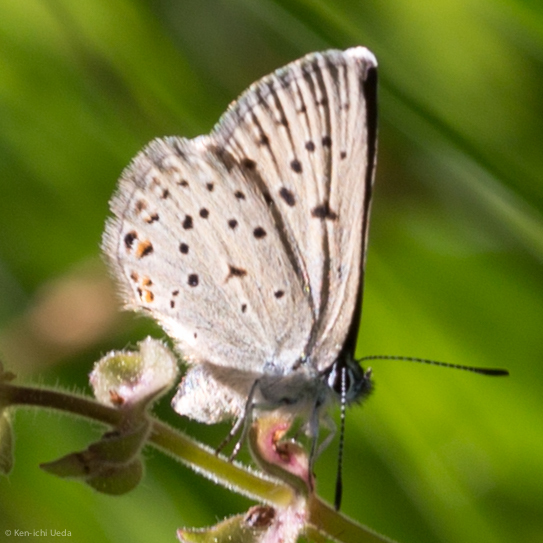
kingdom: Animalia
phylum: Arthropoda
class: Insecta
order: Lepidoptera
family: Lycaenidae
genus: Icaricia
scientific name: Icaricia saepiolus
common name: Greenish blue
